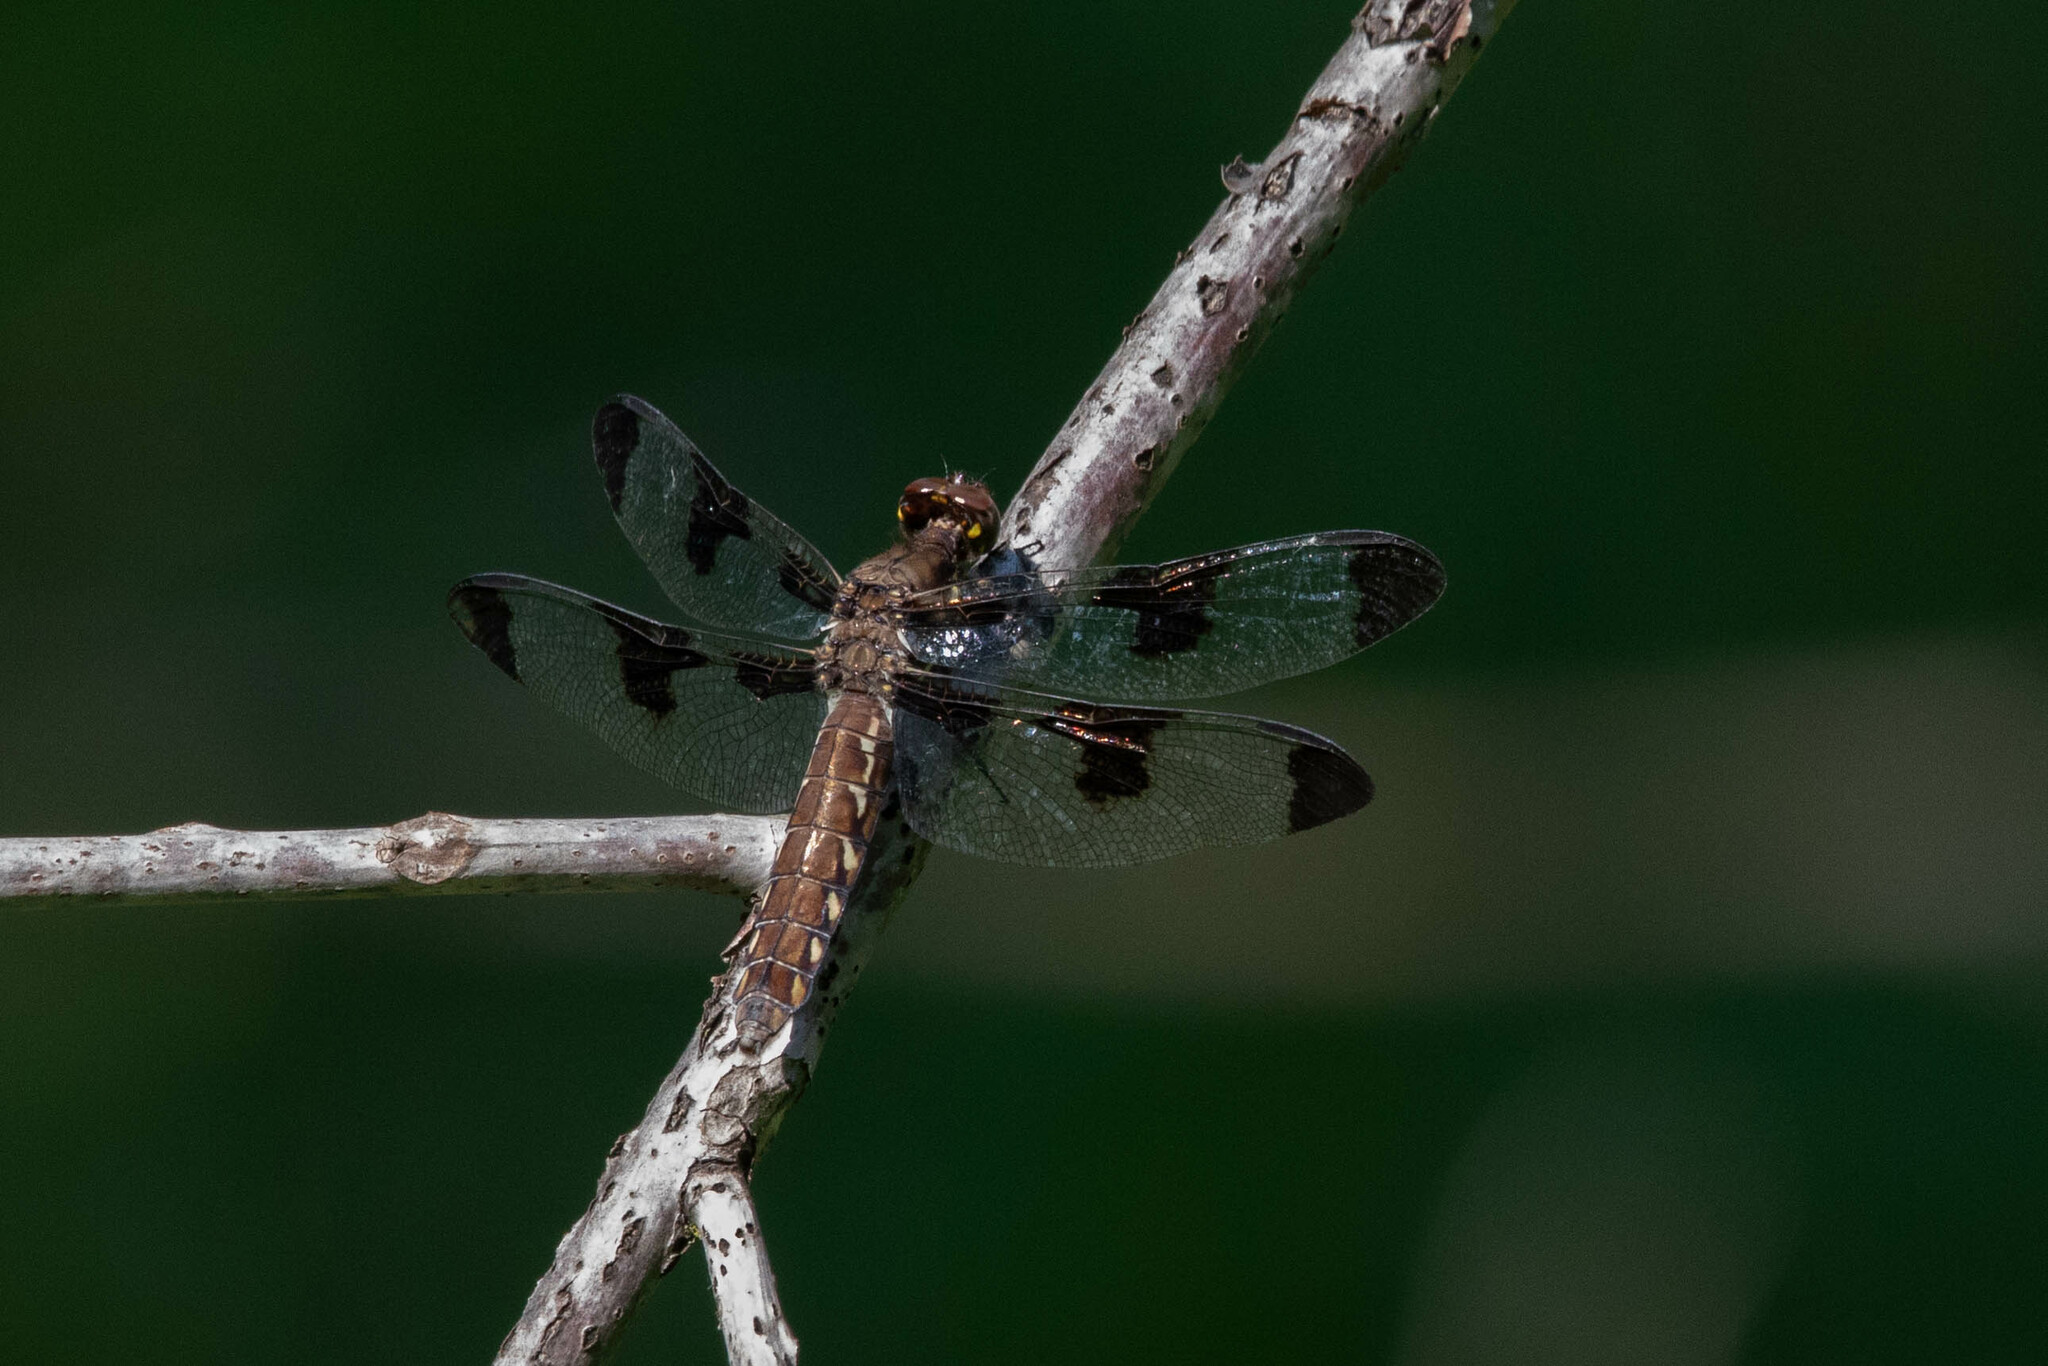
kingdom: Animalia
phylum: Arthropoda
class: Insecta
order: Odonata
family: Libellulidae
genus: Plathemis
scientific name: Plathemis lydia
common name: Common whitetail
